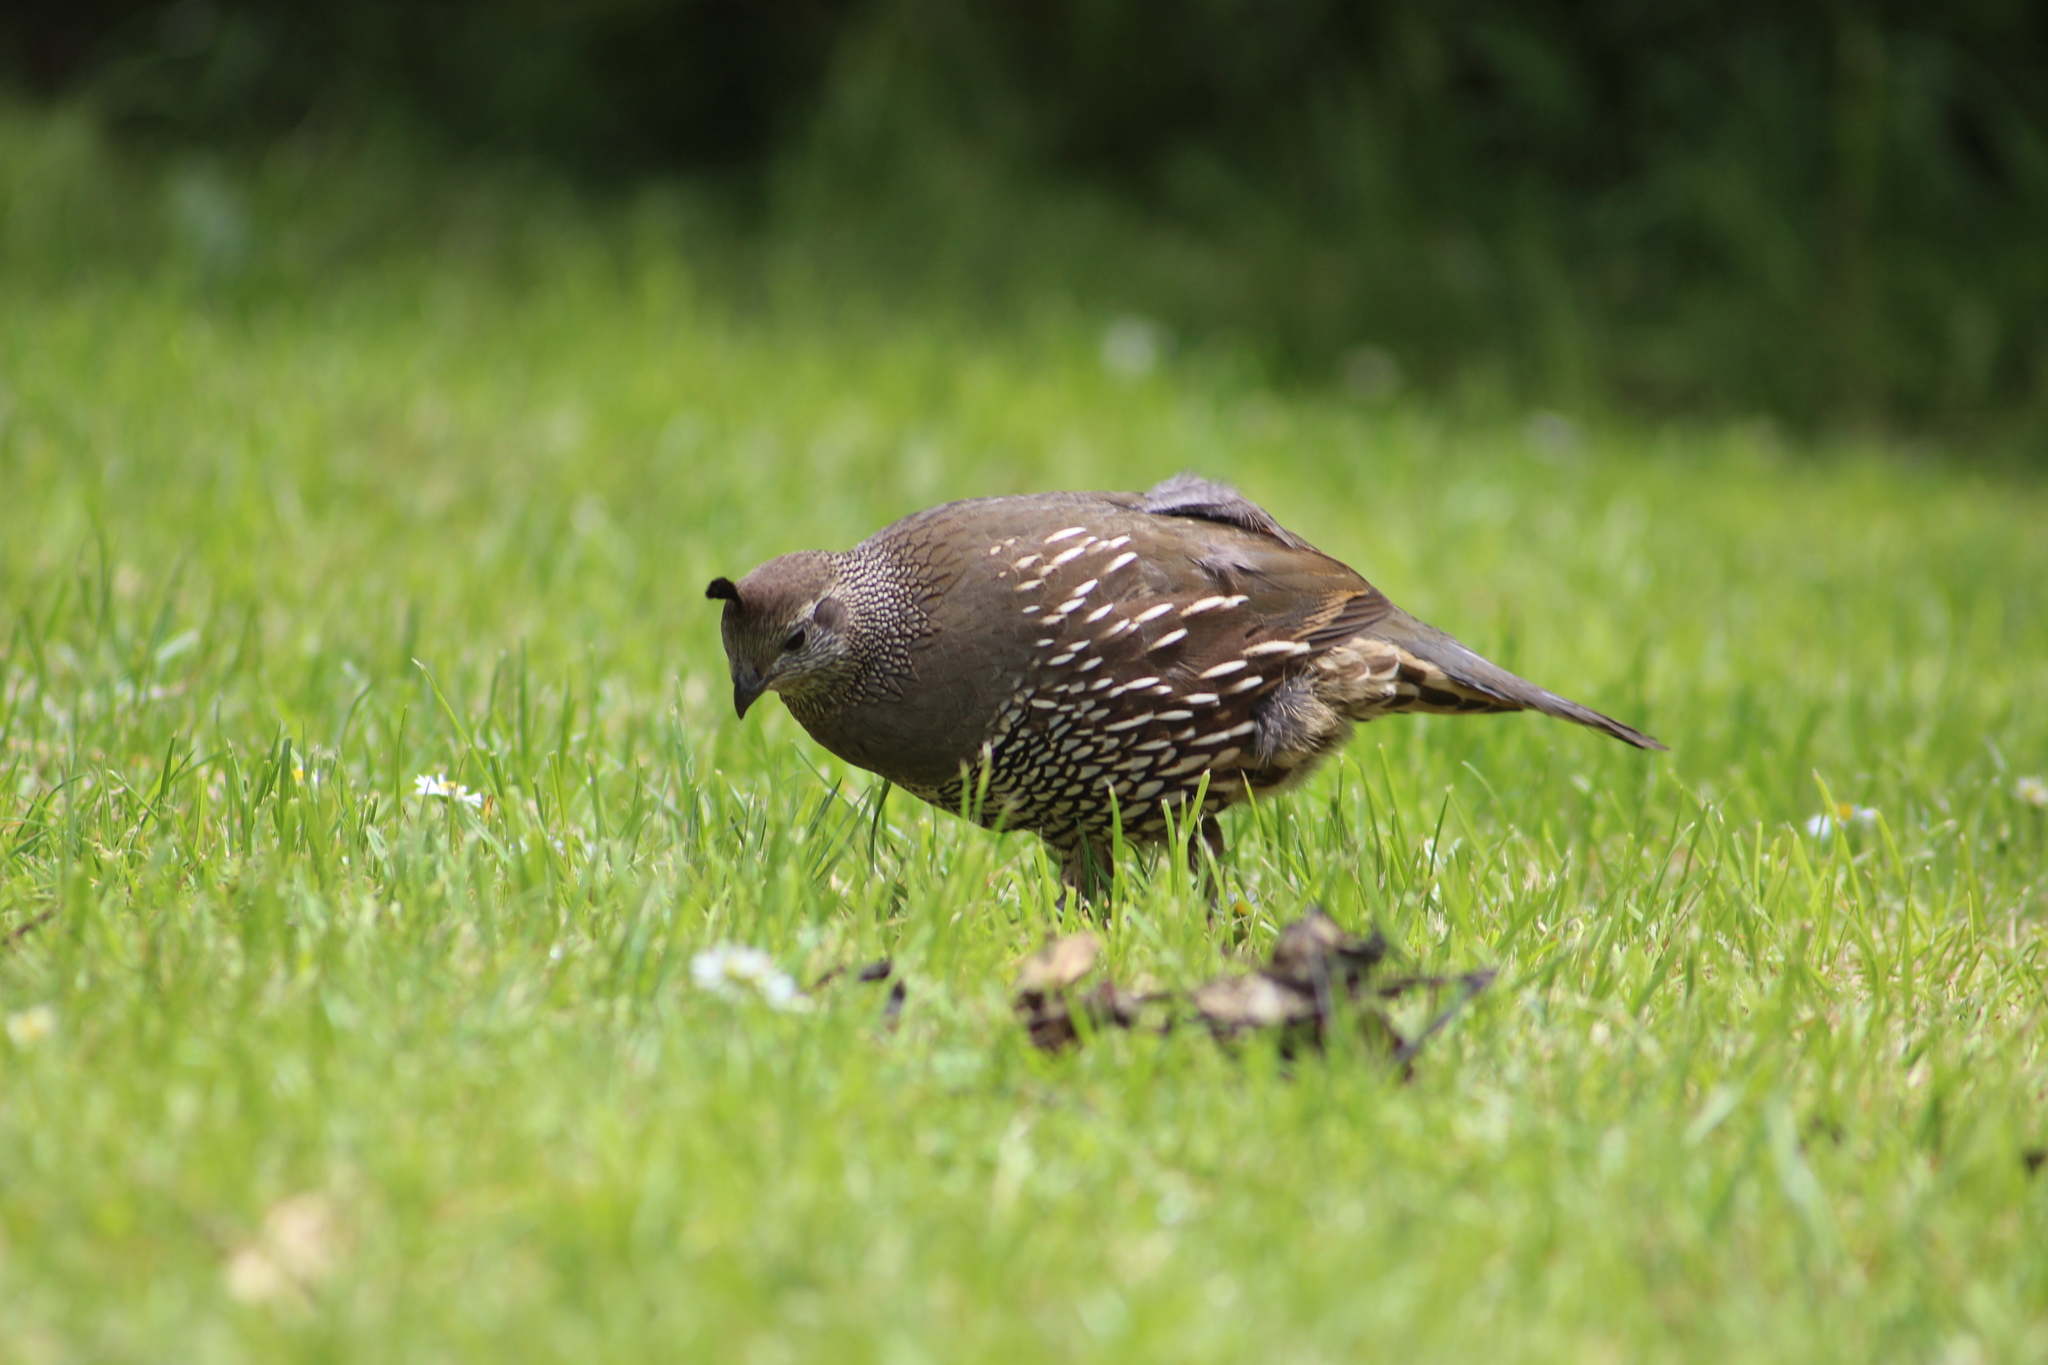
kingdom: Animalia
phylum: Chordata
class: Aves
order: Galliformes
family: Odontophoridae
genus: Callipepla
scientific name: Callipepla californica
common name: California quail
